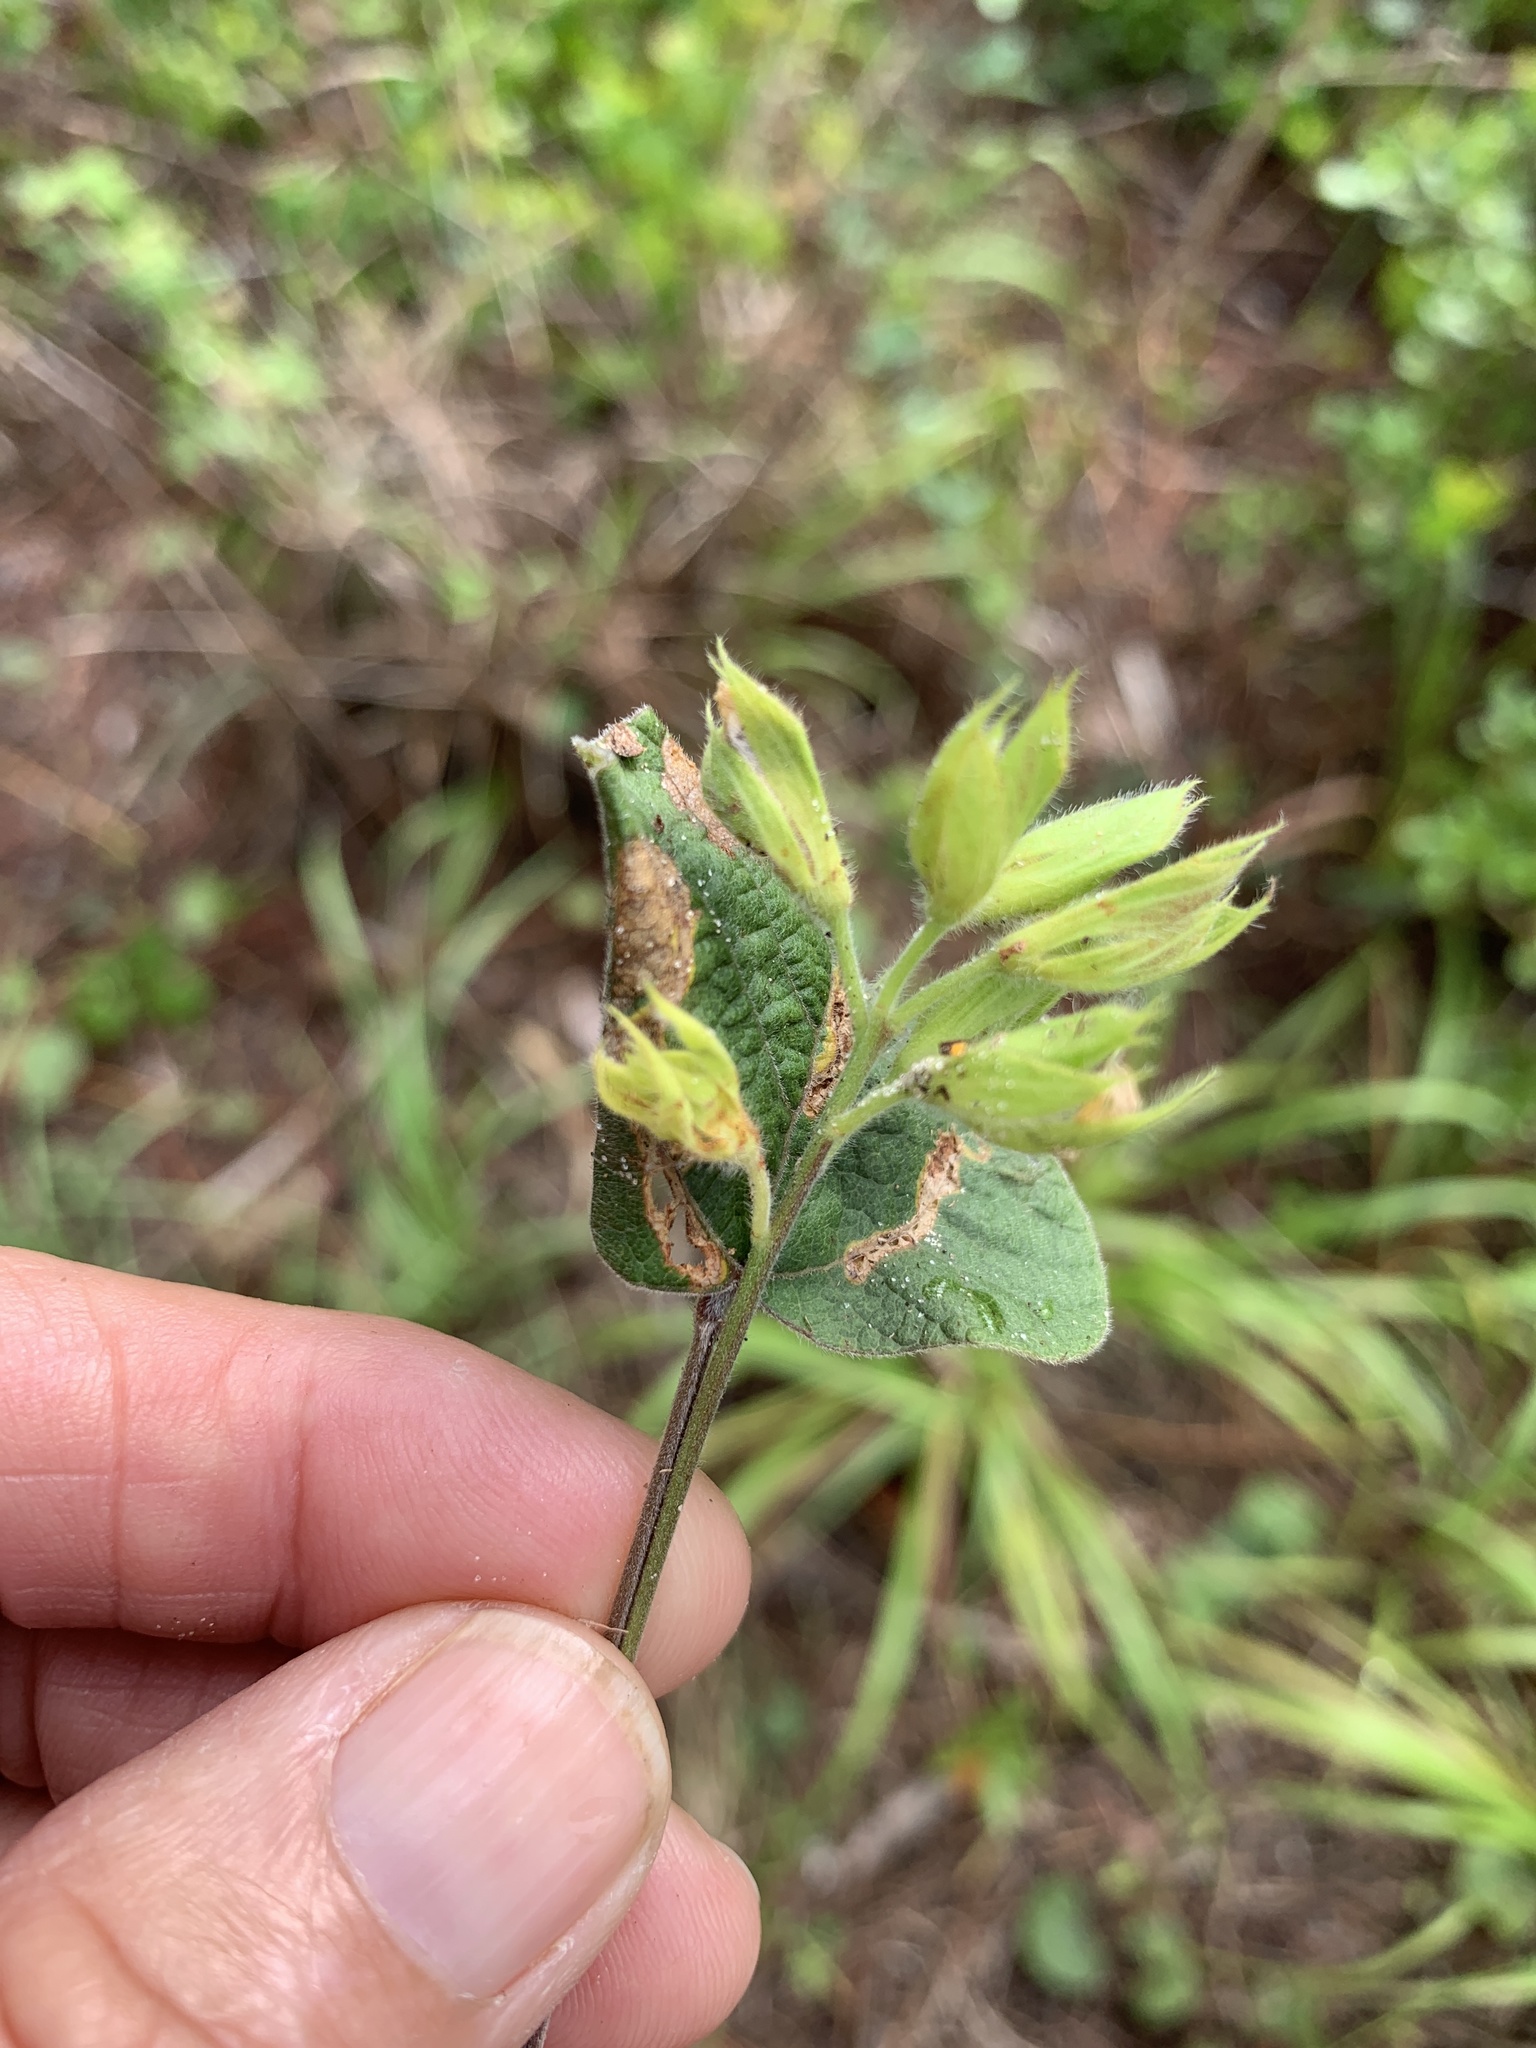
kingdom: Plantae
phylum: Tracheophyta
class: Magnoliopsida
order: Fabales
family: Fabaceae
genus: Rhynchosia
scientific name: Rhynchosia michauxii
